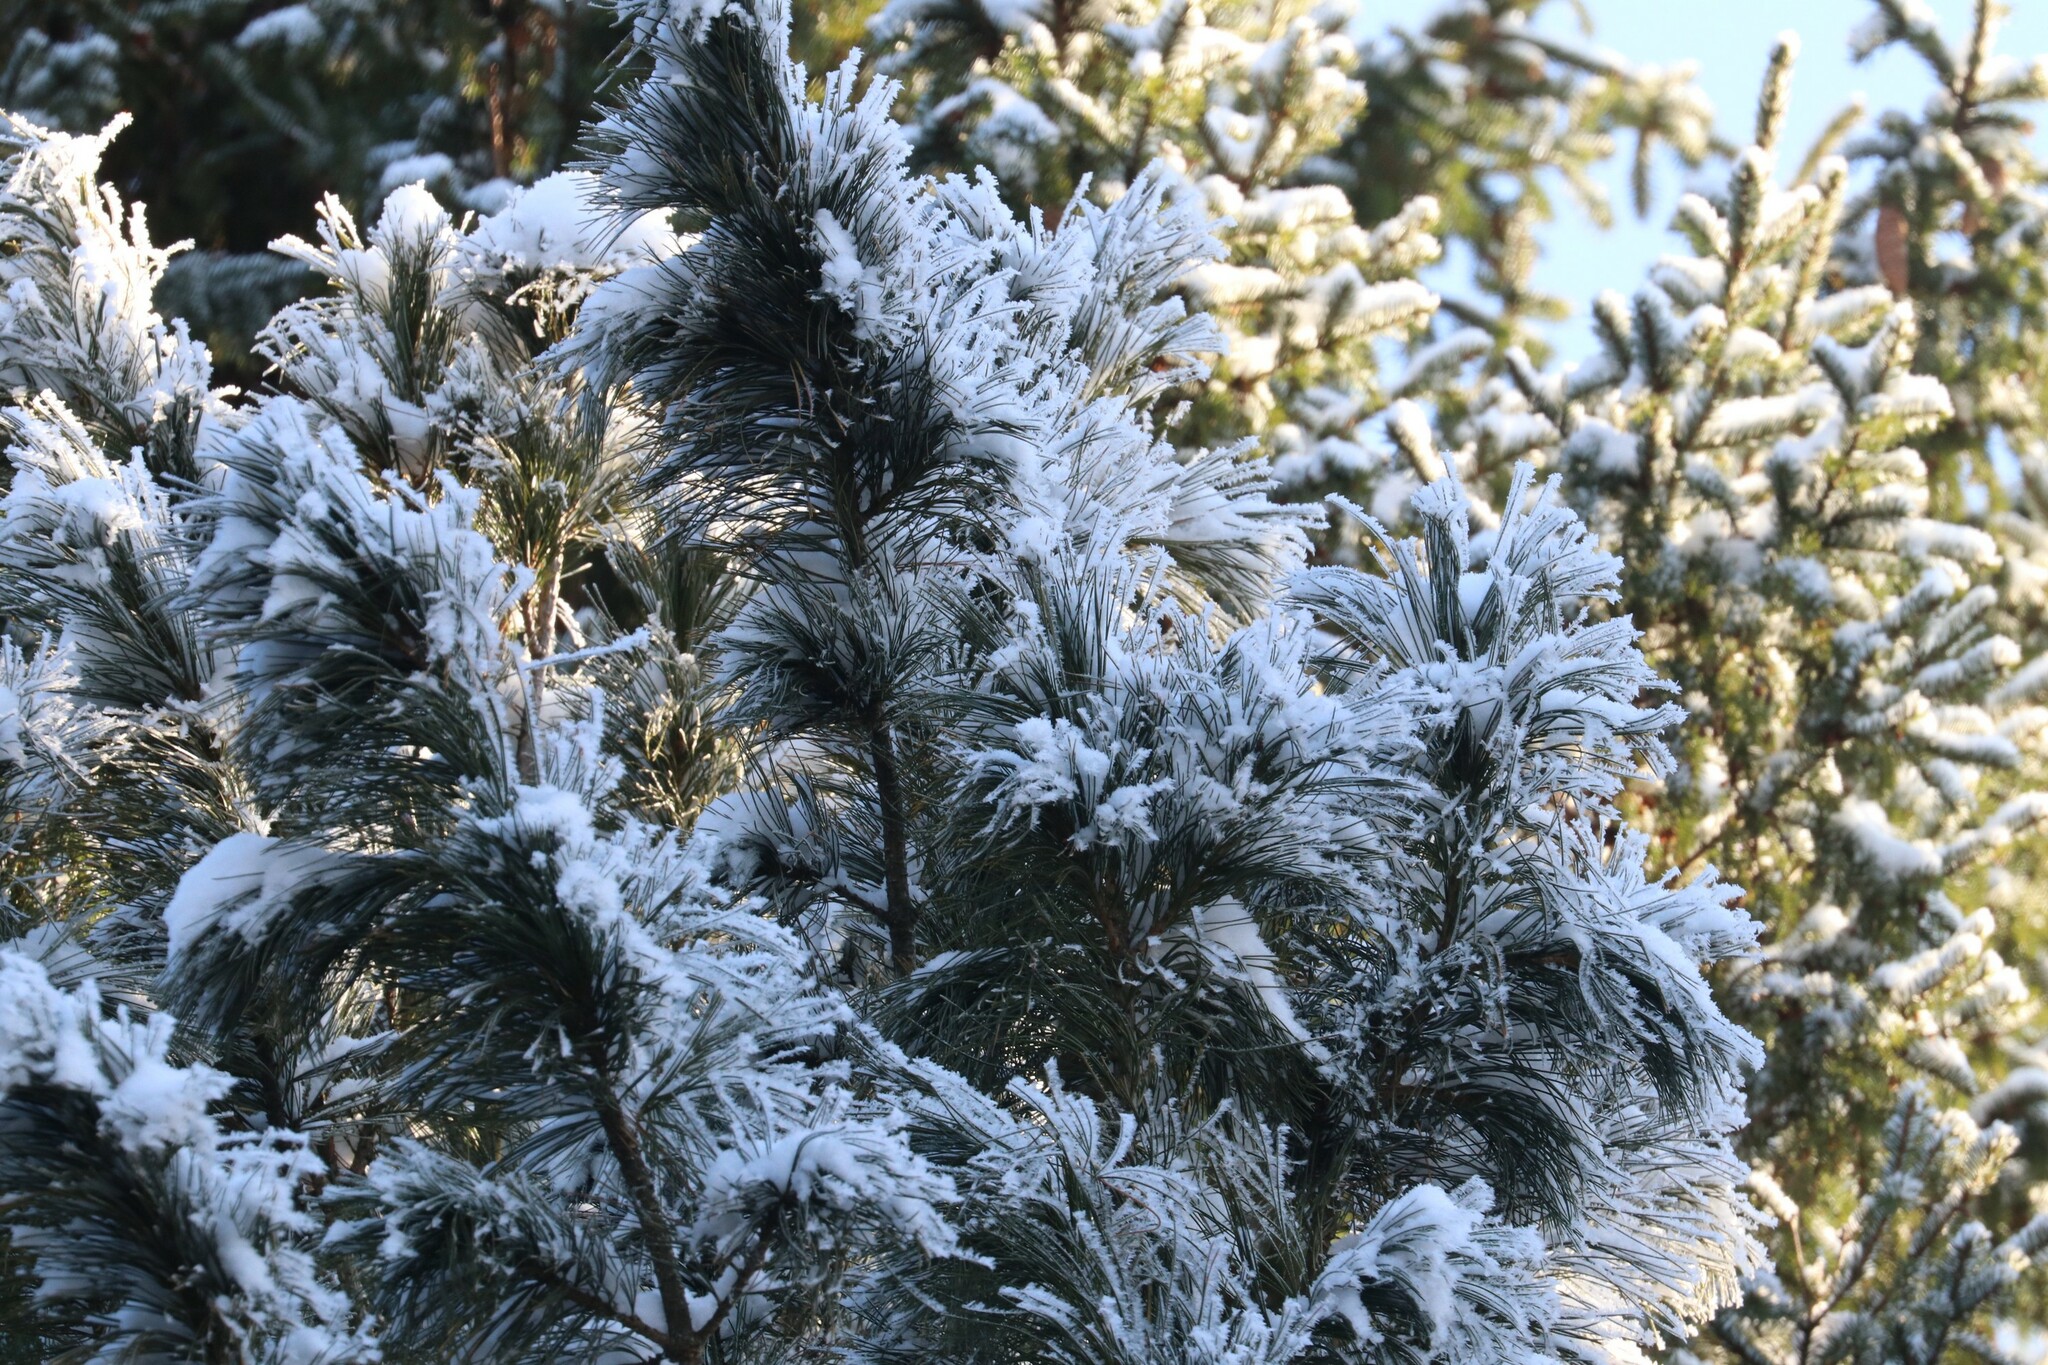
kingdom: Plantae
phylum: Tracheophyta
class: Pinopsida
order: Pinales
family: Pinaceae
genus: Pinus
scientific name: Pinus sibirica
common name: Siberian pine
